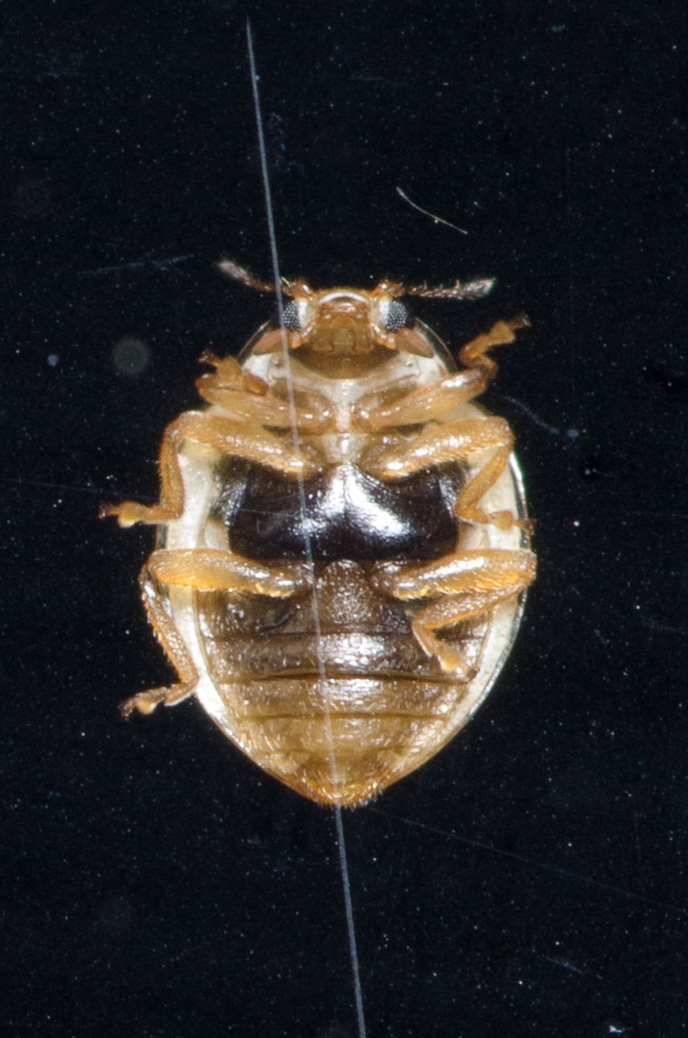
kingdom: Animalia
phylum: Arthropoda
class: Insecta
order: Coleoptera
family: Coccinellidae
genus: Psyllobora
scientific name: Psyllobora renifer
